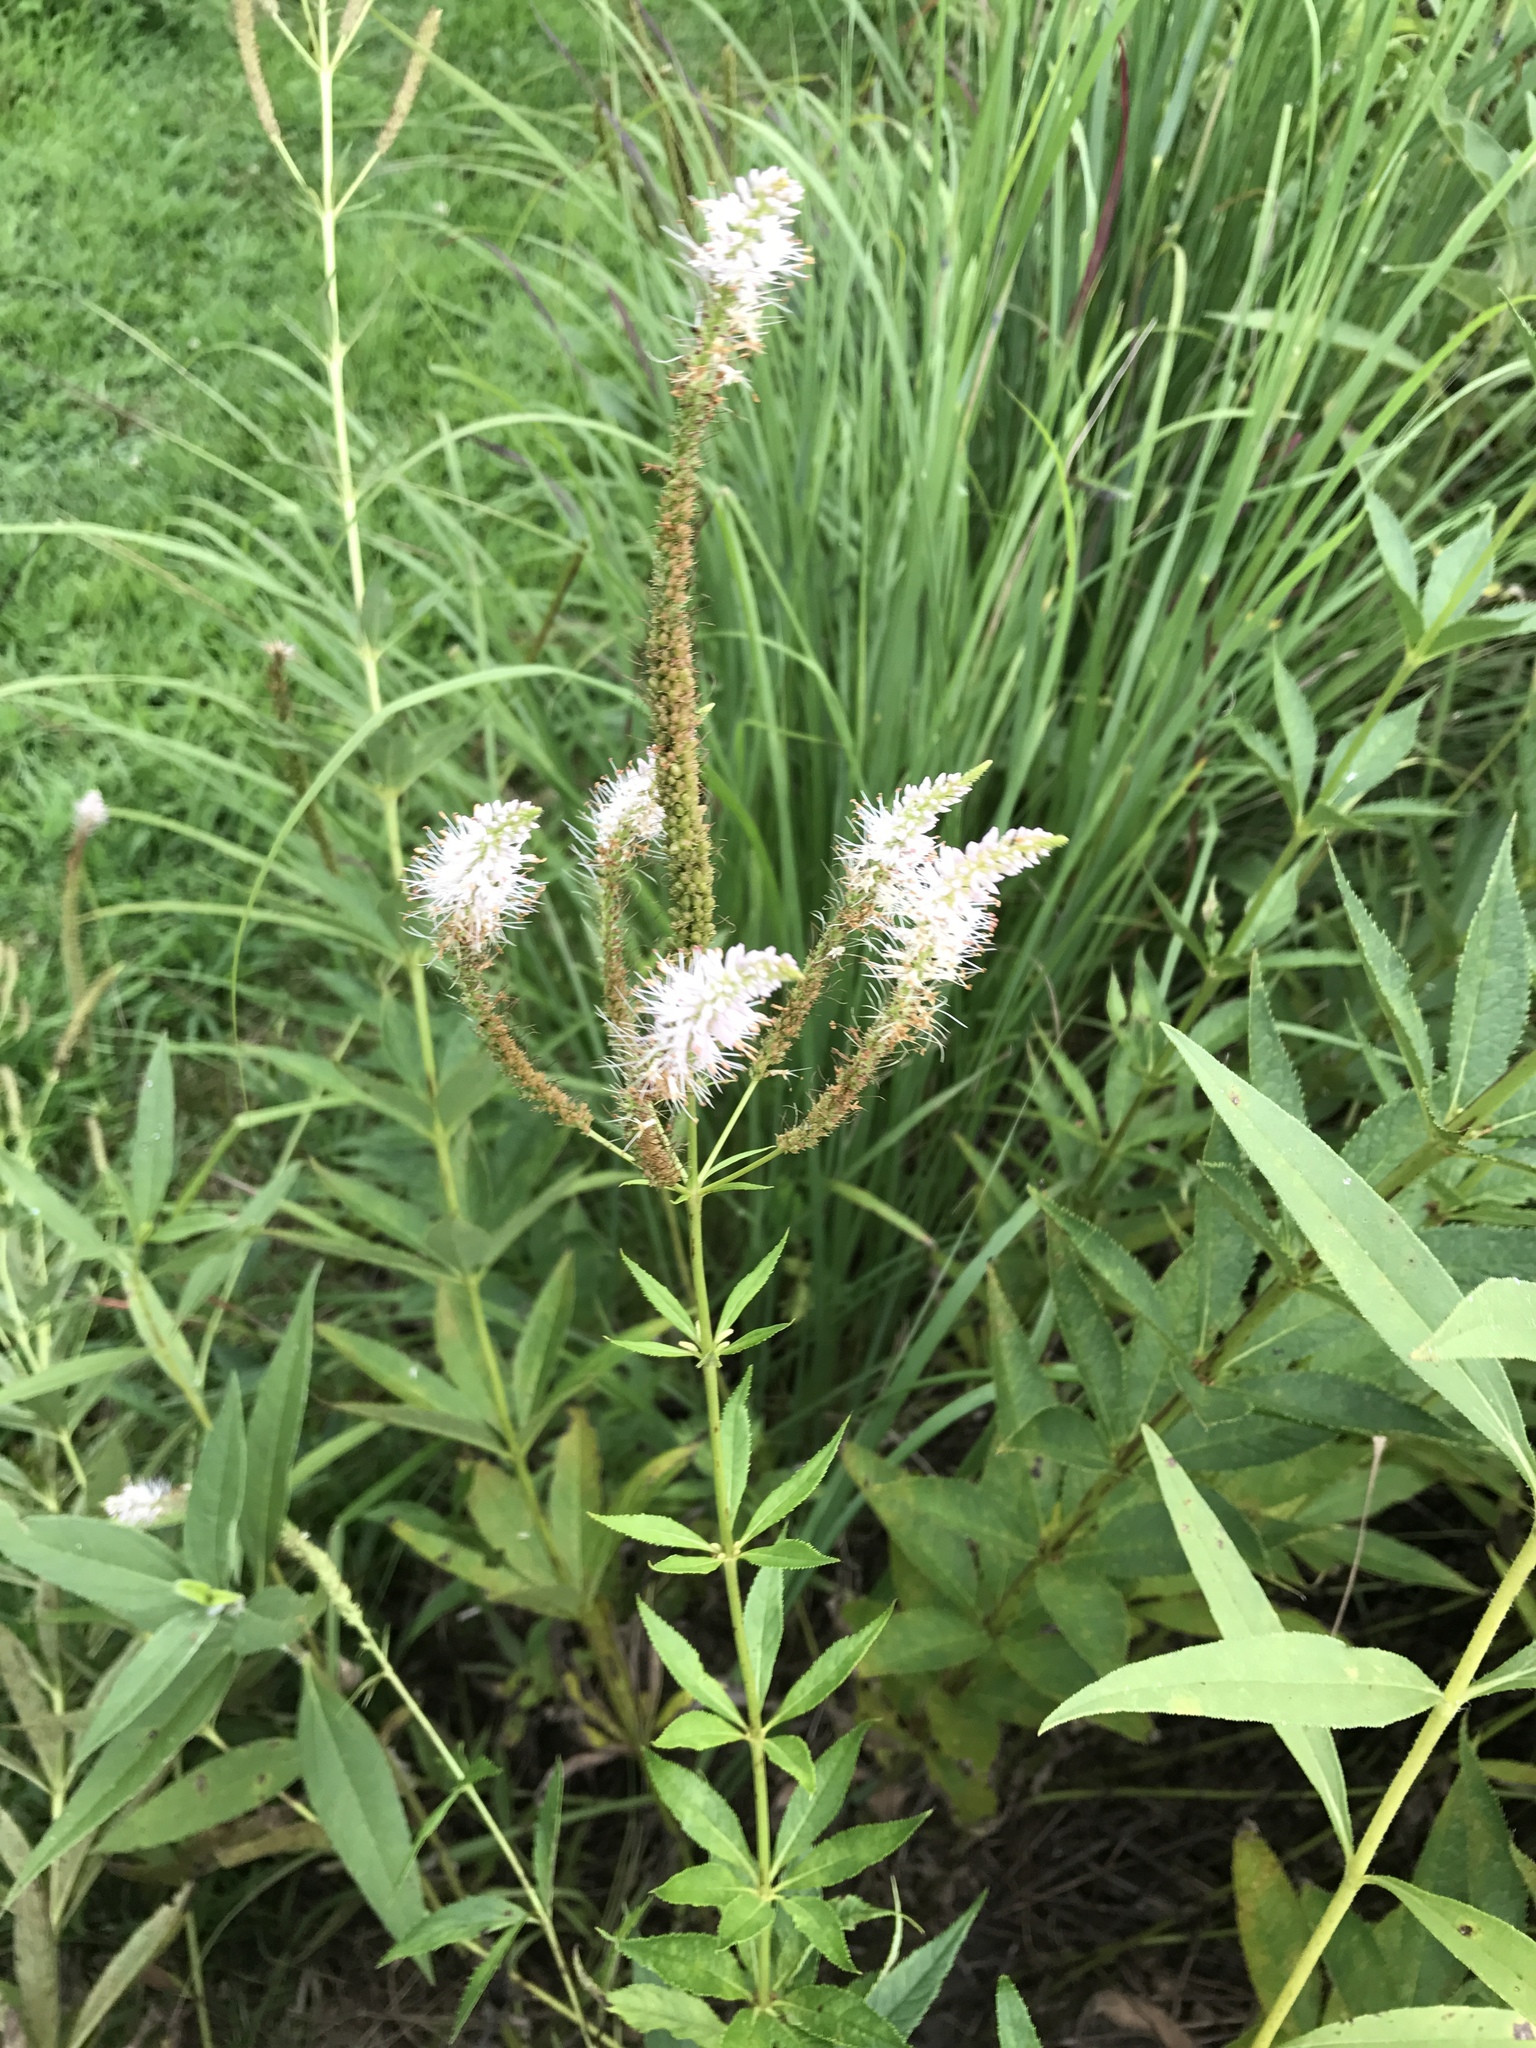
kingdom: Plantae
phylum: Tracheophyta
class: Magnoliopsida
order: Lamiales
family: Plantaginaceae
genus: Veronicastrum
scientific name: Veronicastrum virginicum
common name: Blackroot
